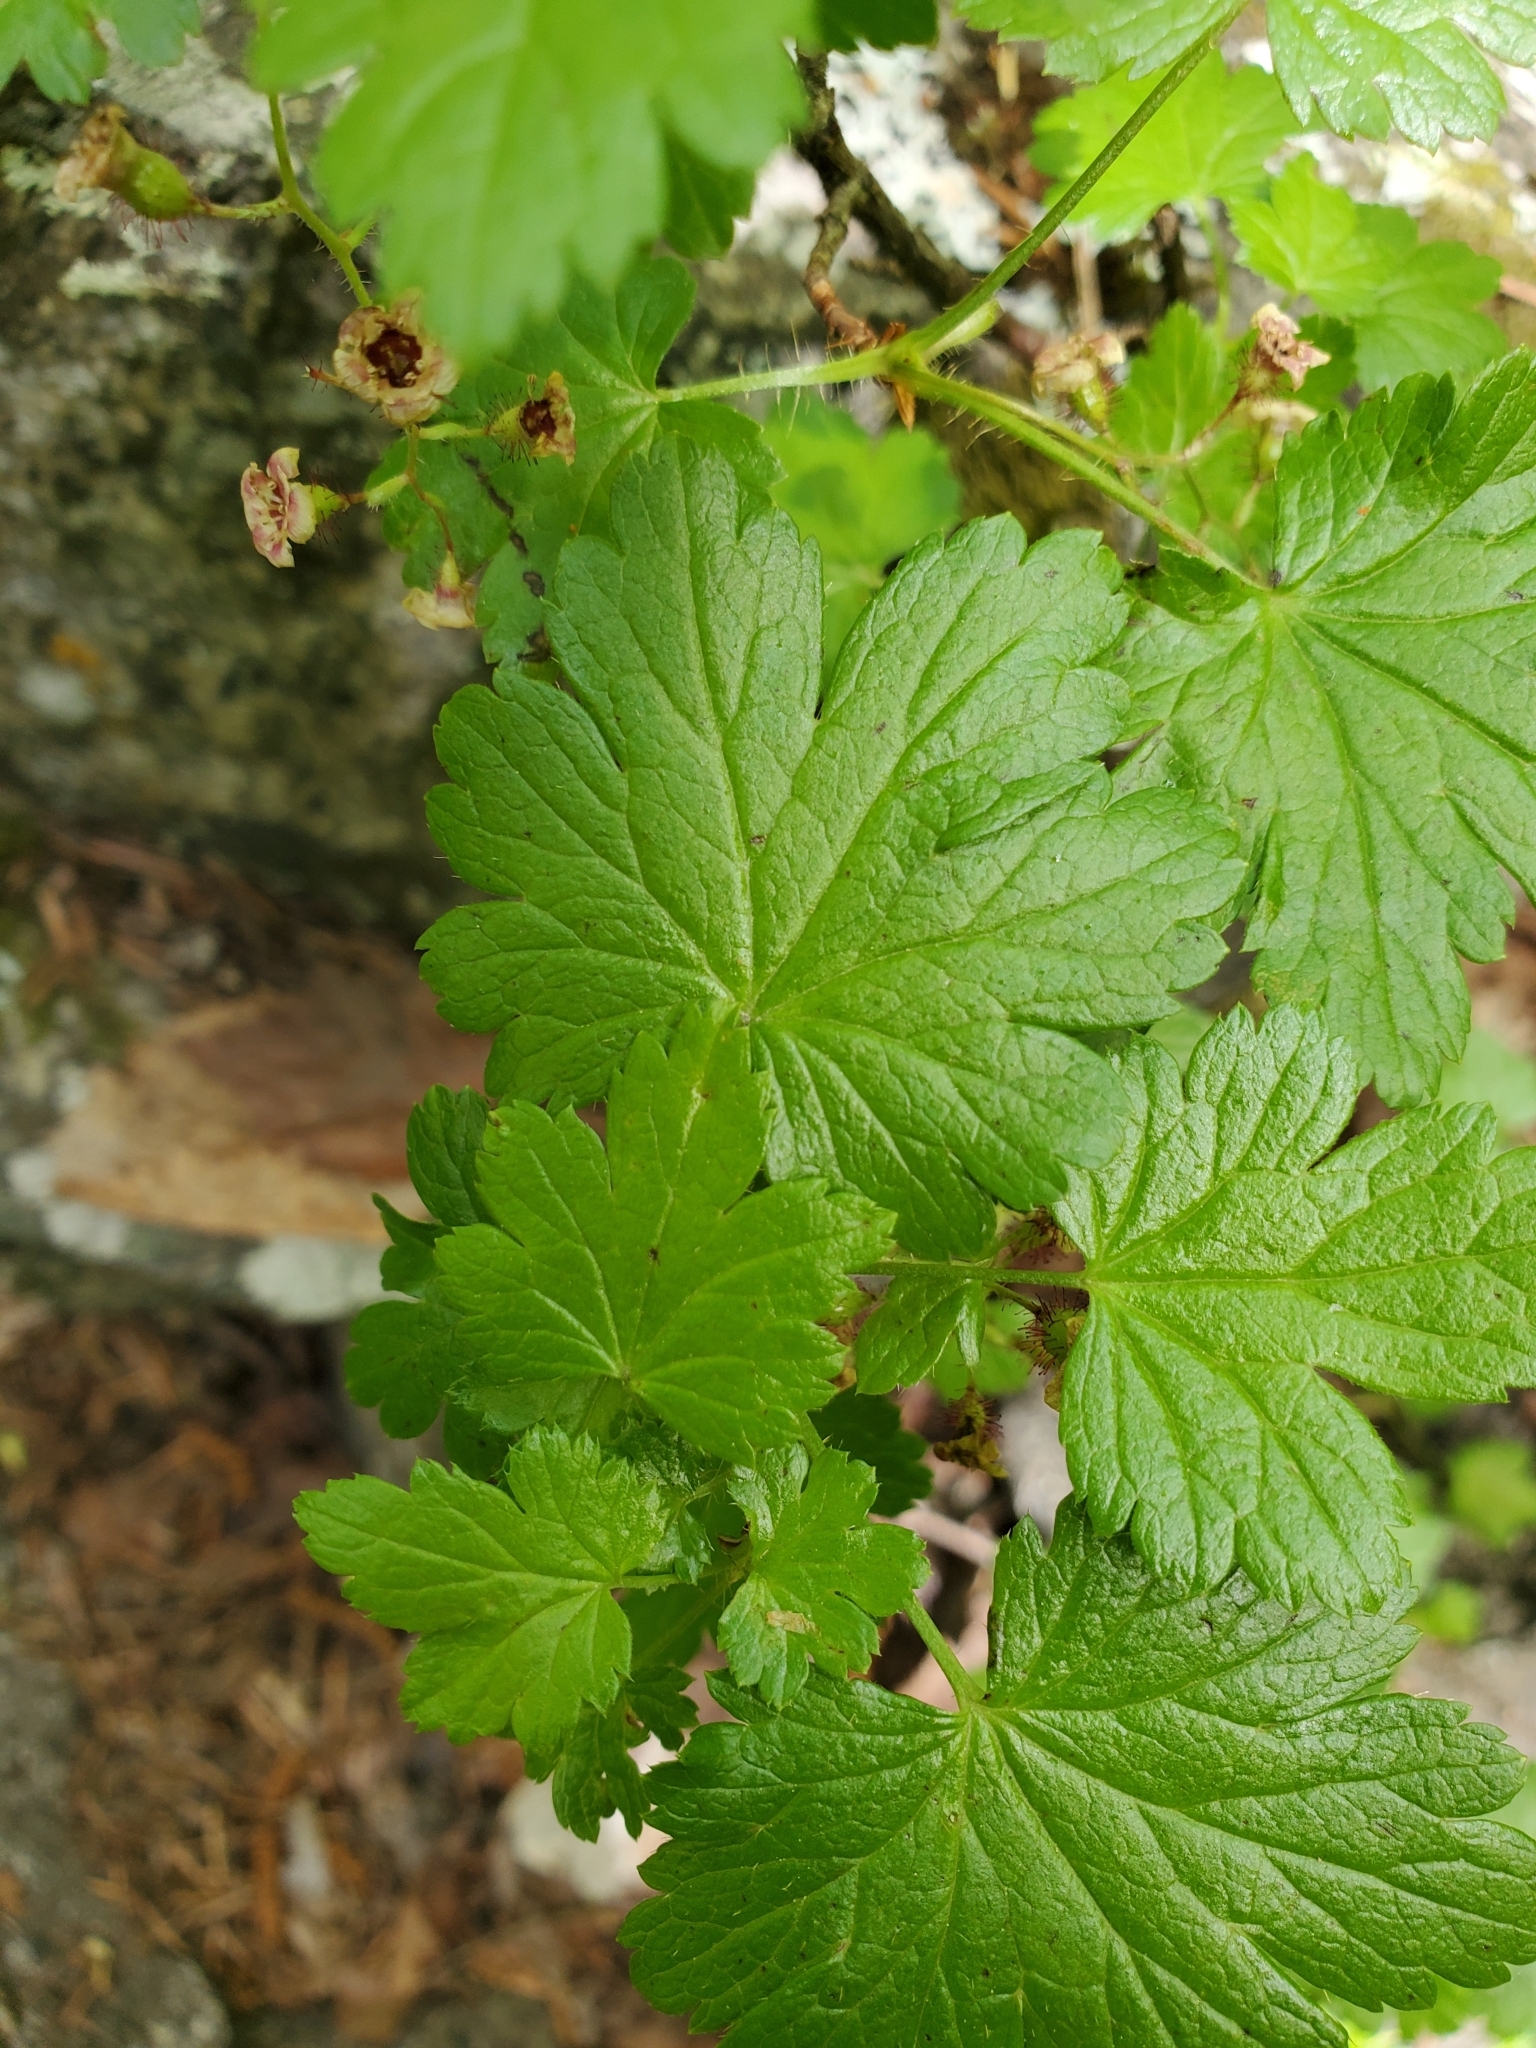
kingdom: Plantae
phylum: Tracheophyta
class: Magnoliopsida
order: Saxifragales
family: Grossulariaceae
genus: Ribes
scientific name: Ribes lacustre
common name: Black gooseberry
